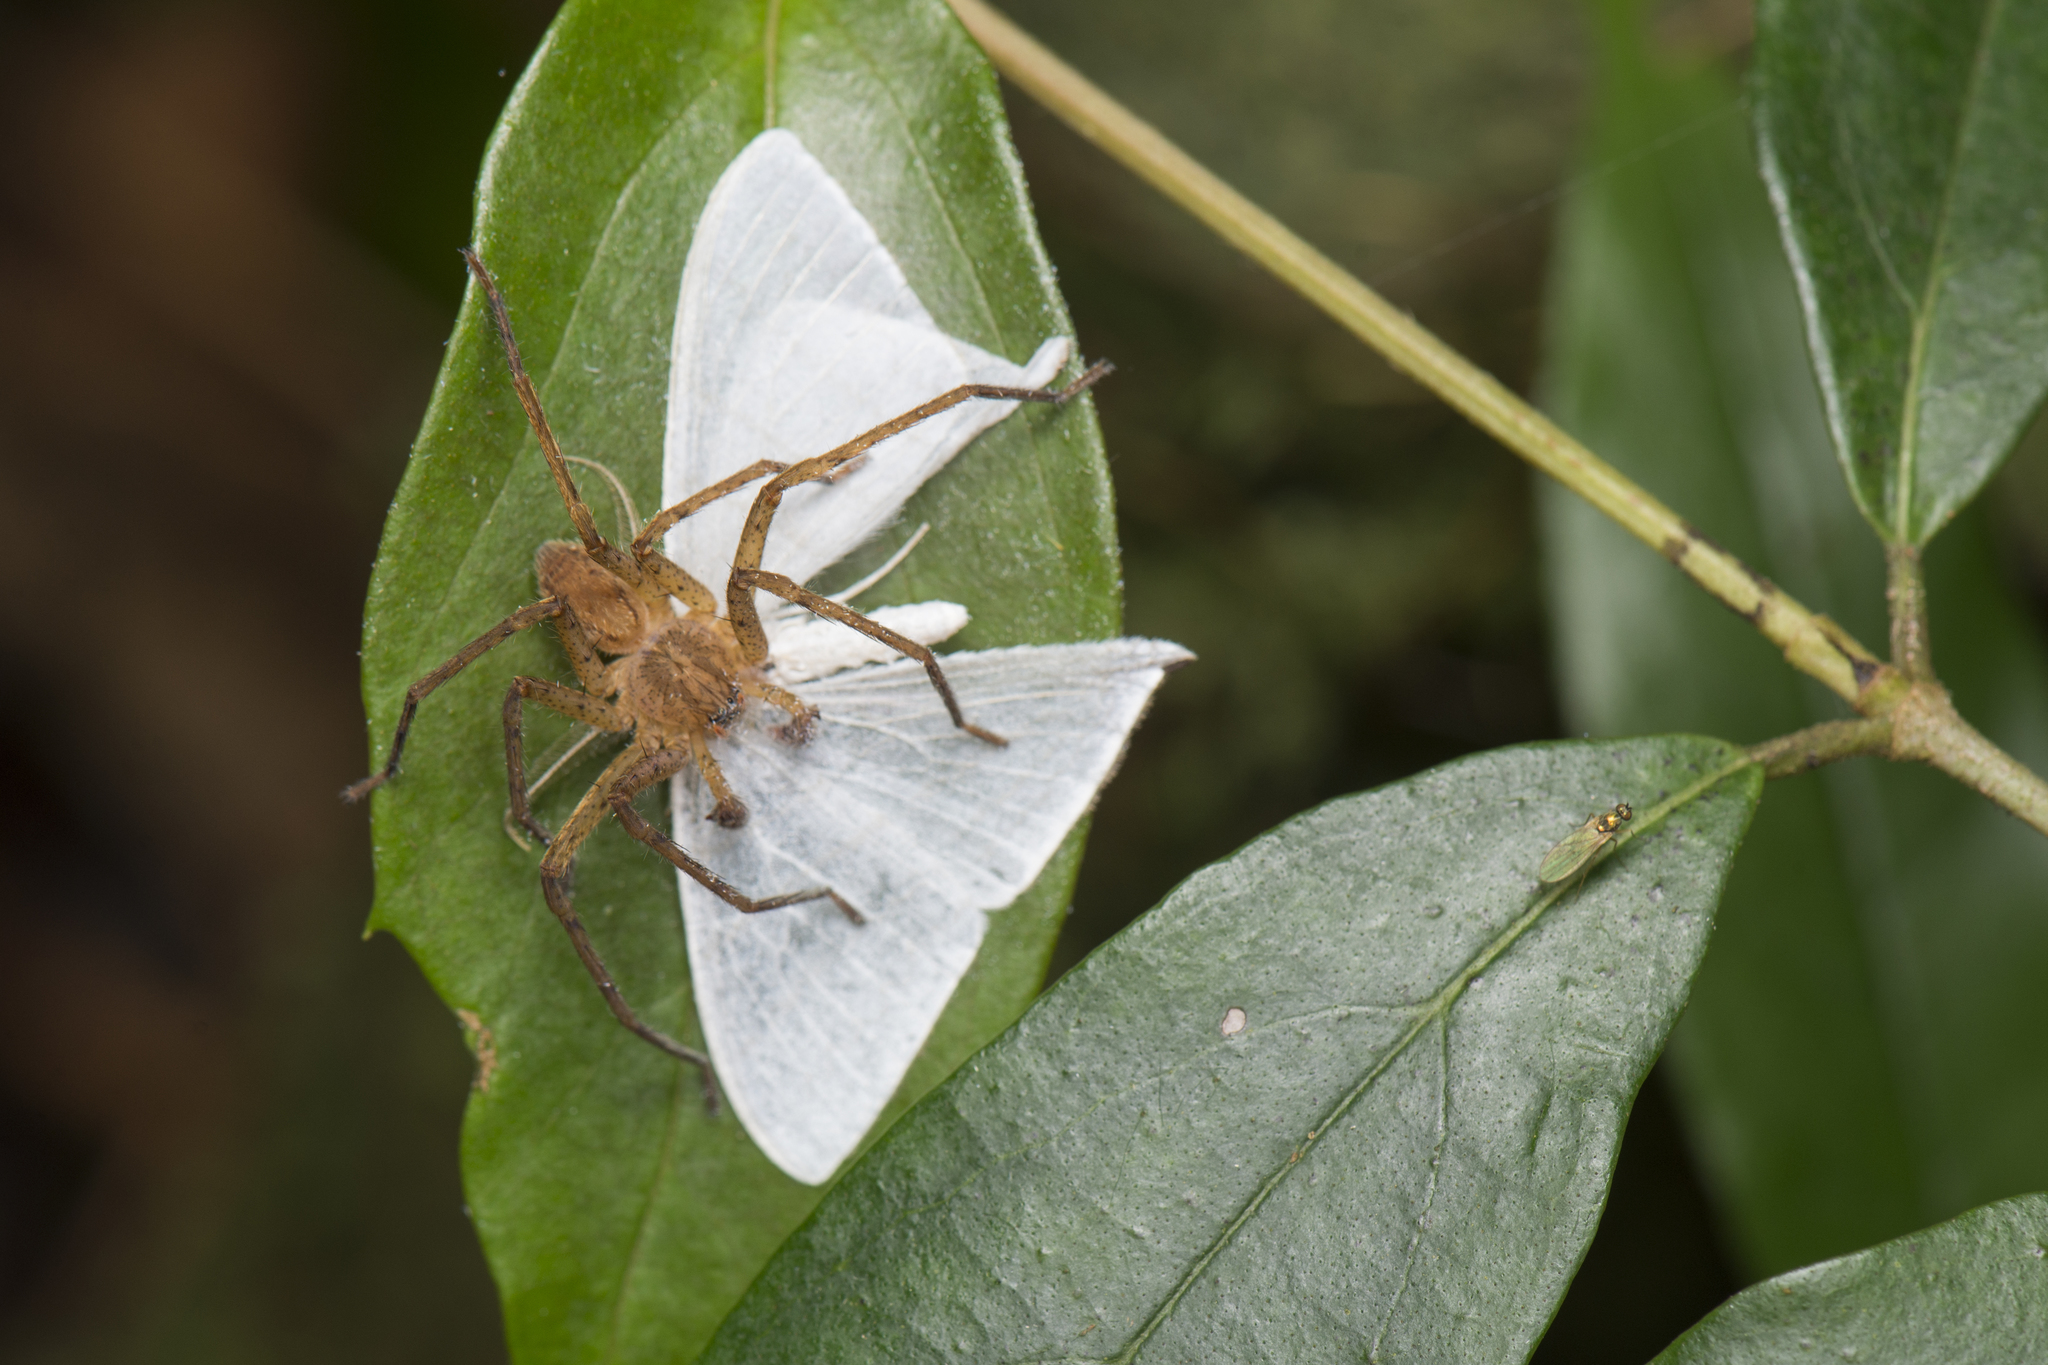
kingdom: Animalia
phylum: Arthropoda
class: Insecta
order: Lepidoptera
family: Drepanidae
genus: Ditrigona
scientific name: Ditrigona triangularia
